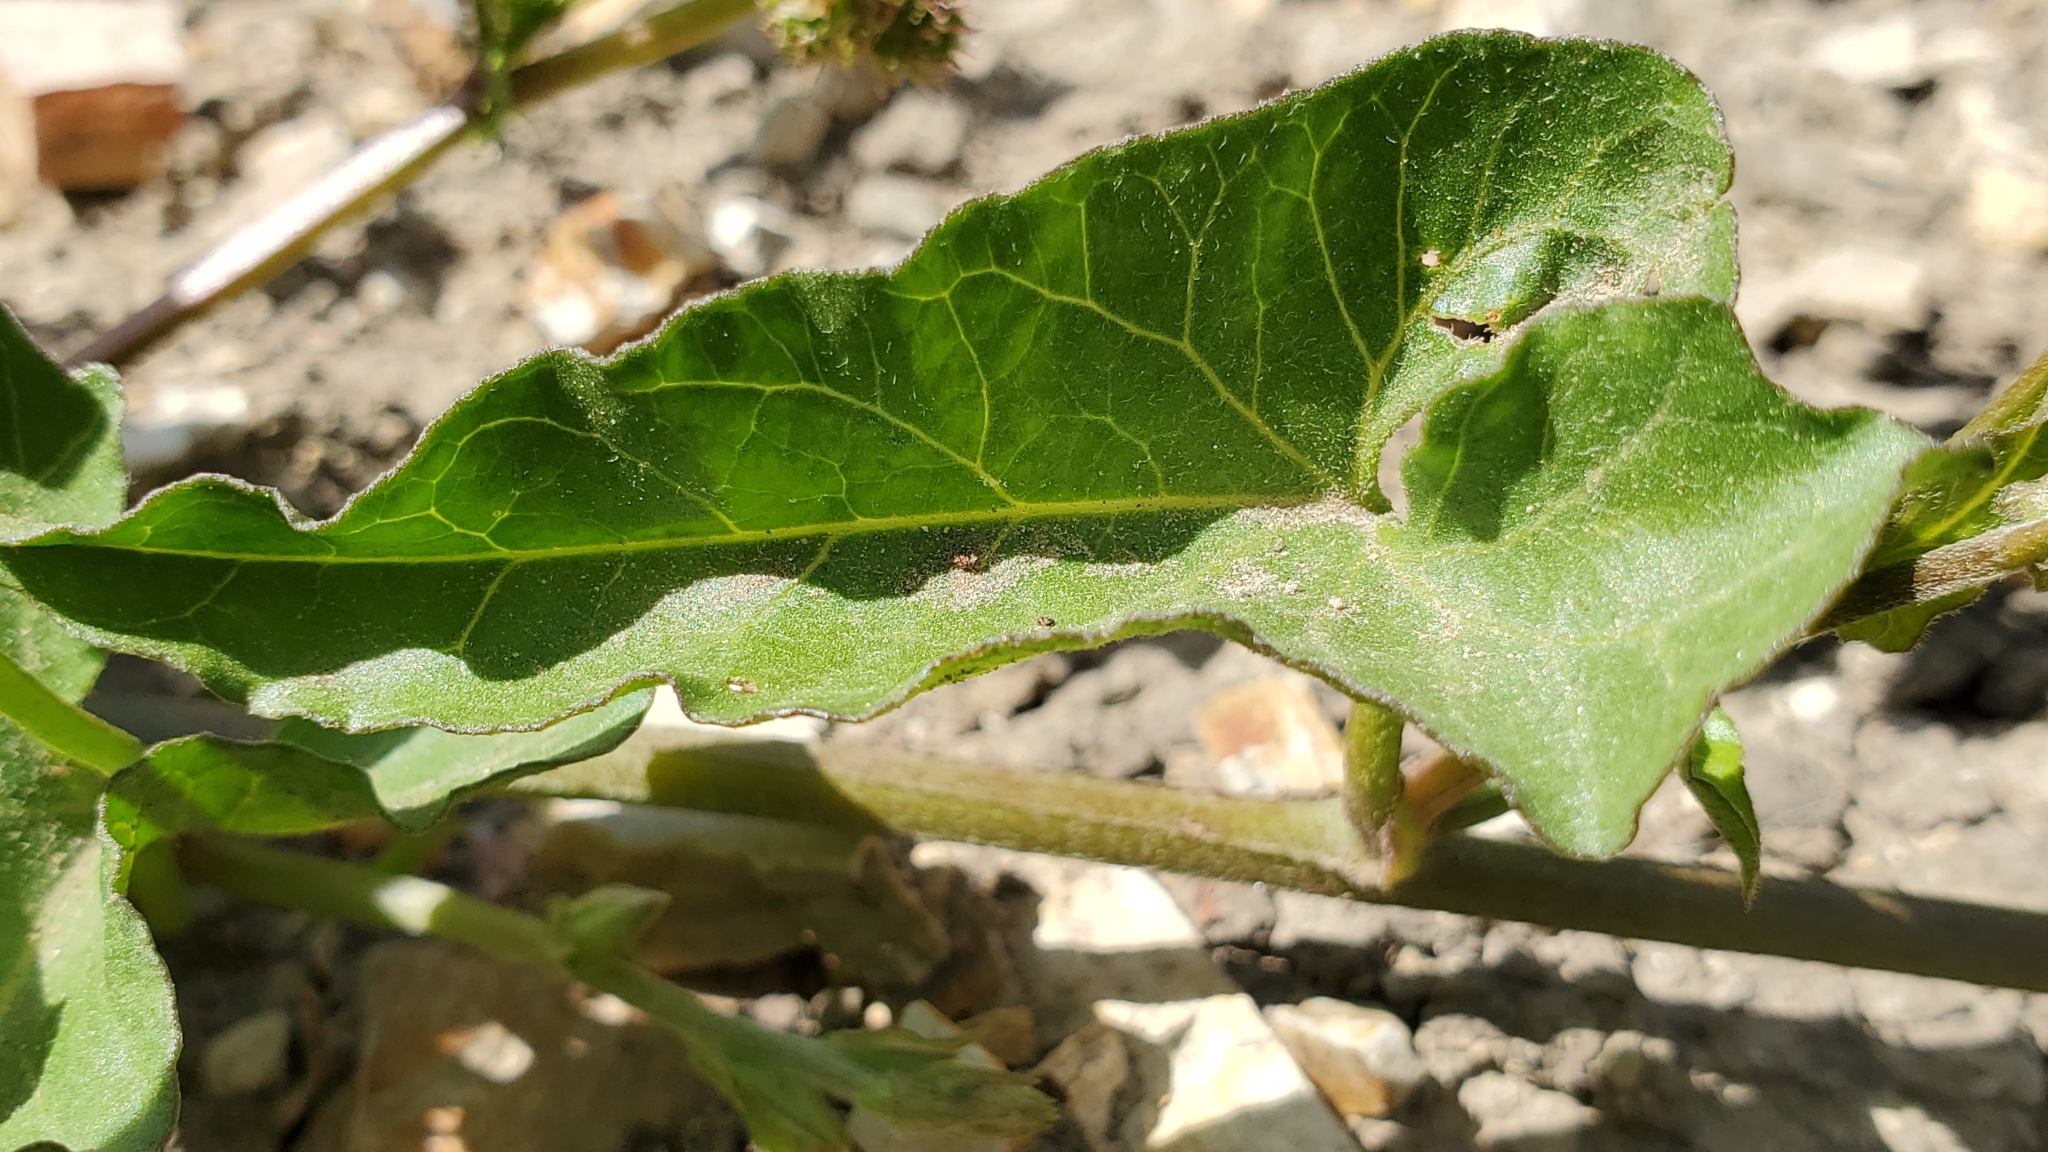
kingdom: Plantae
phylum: Tracheophyta
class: Magnoliopsida
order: Solanales
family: Convolvulaceae
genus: Calystegia
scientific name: Calystegia macrostegia
